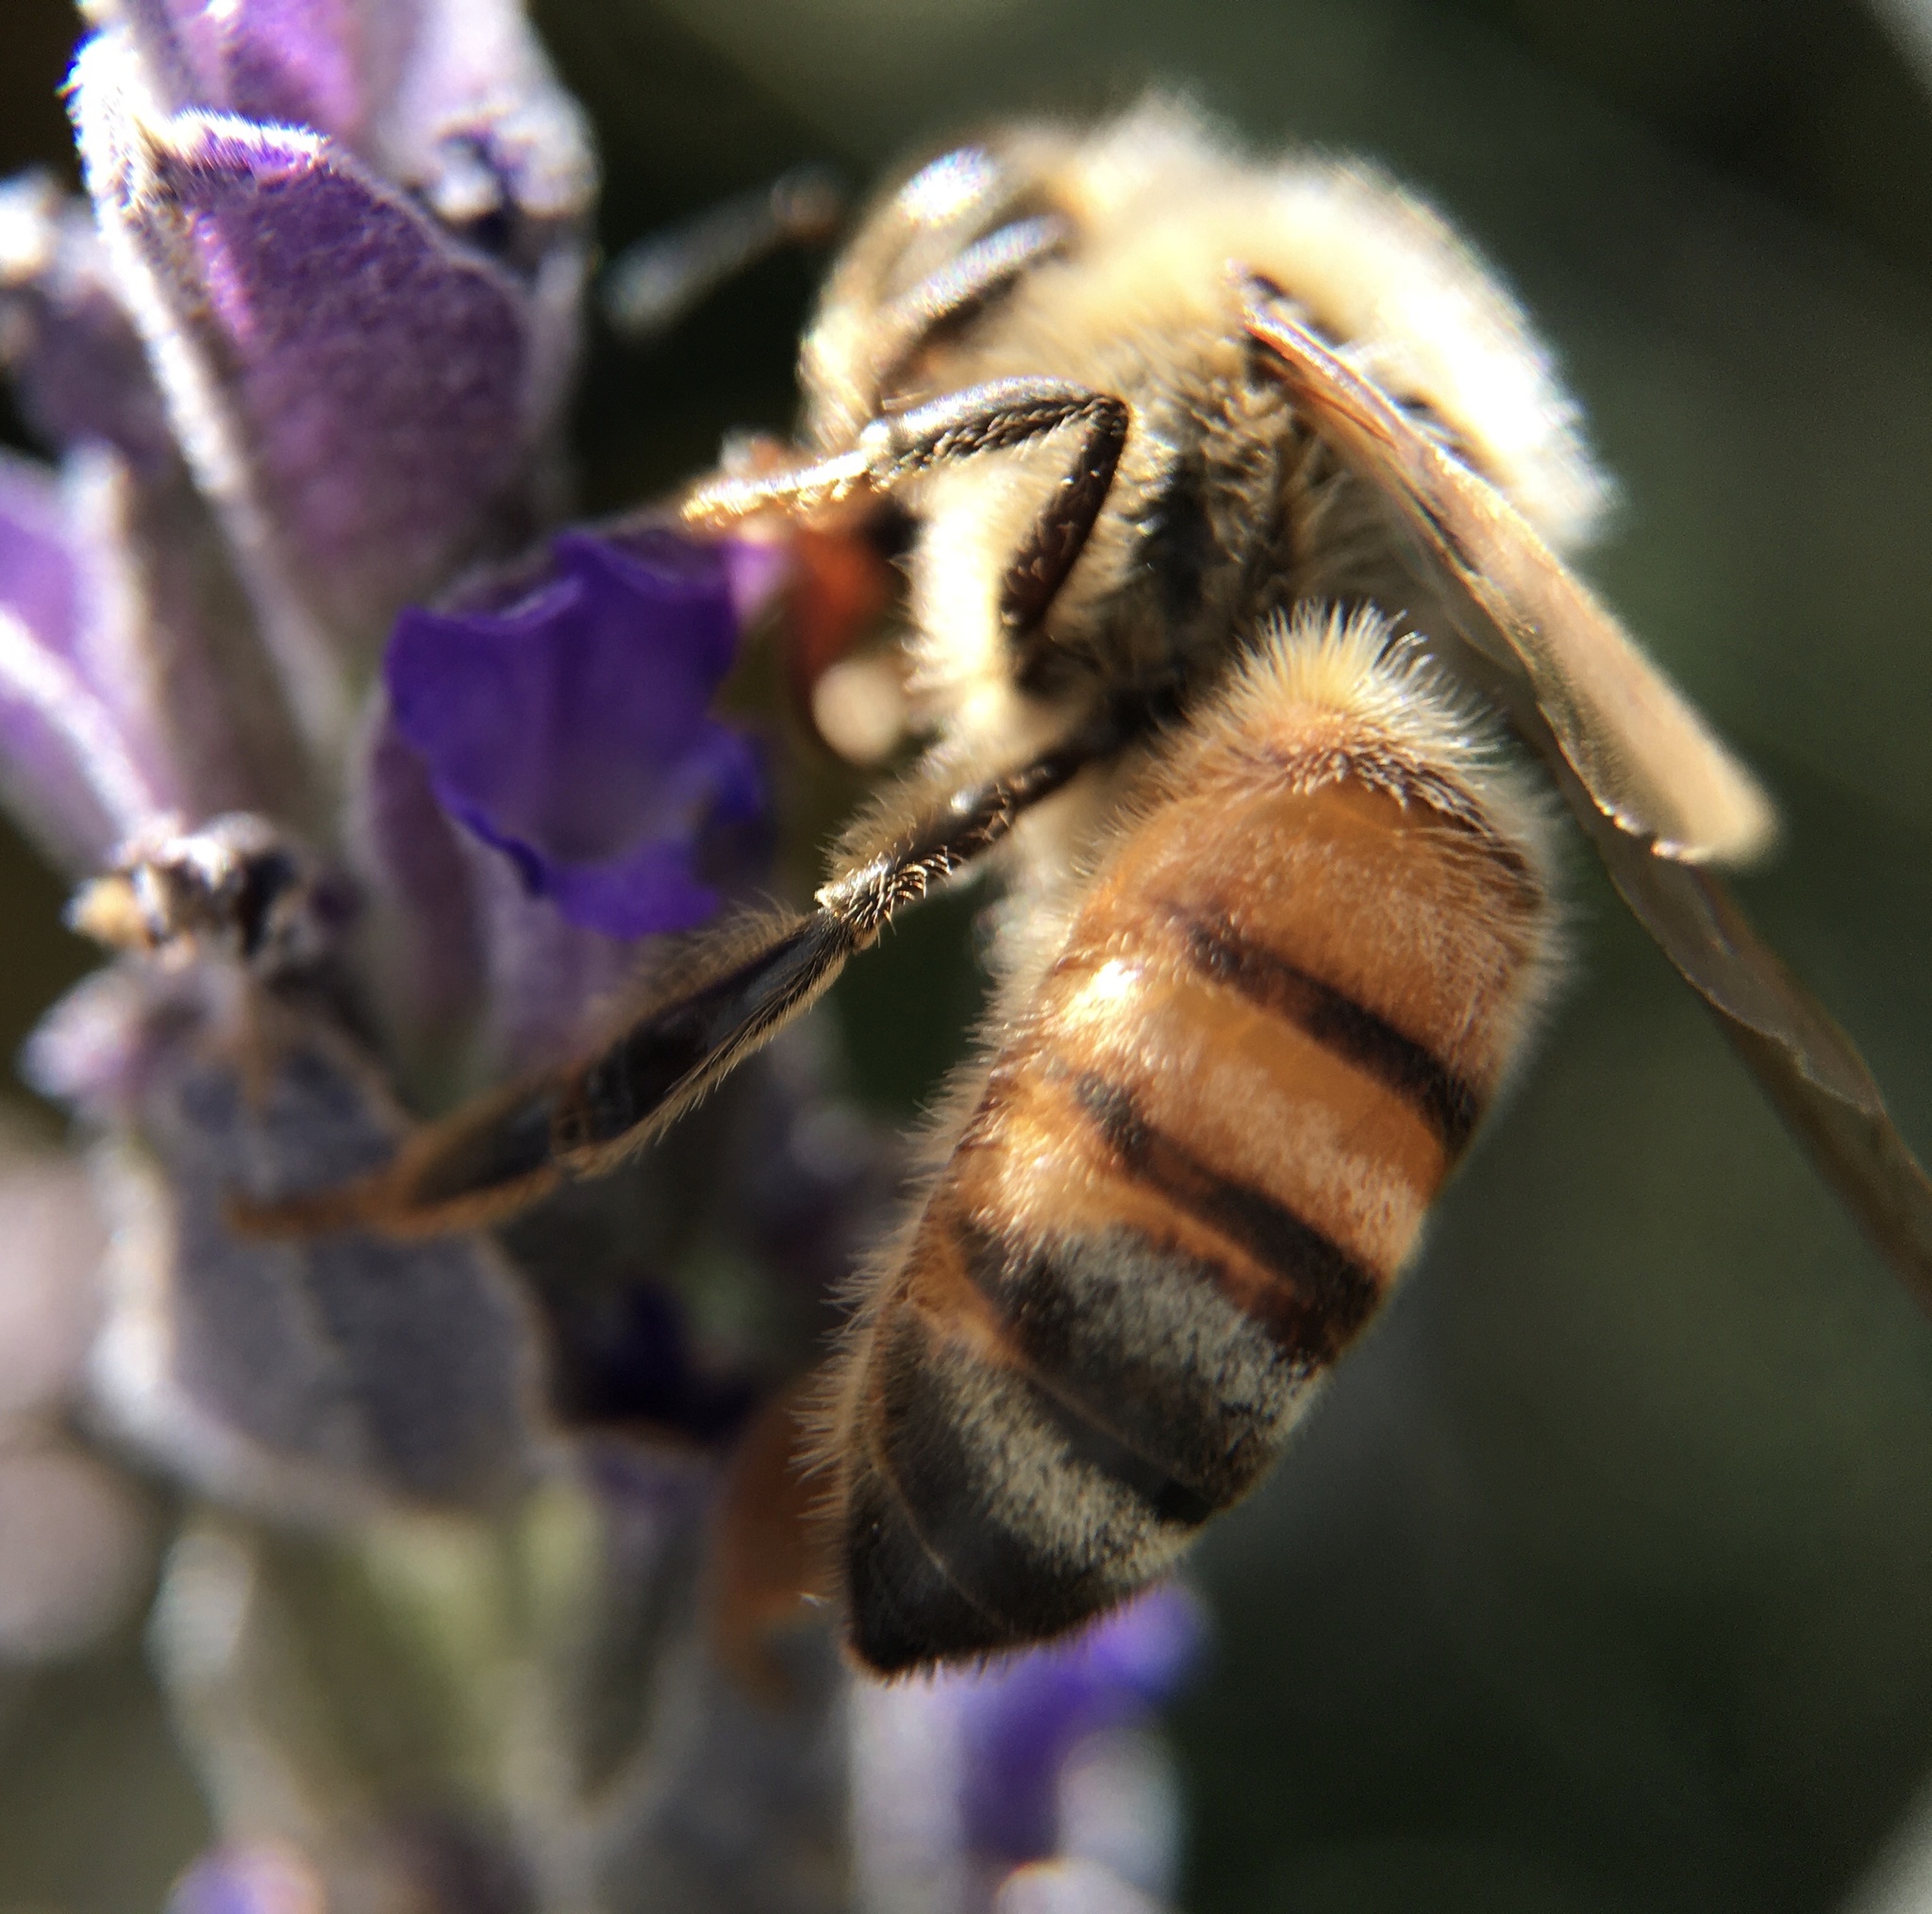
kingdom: Animalia
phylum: Arthropoda
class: Insecta
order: Hymenoptera
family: Apidae
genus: Apis
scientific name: Apis mellifera
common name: Honey bee
